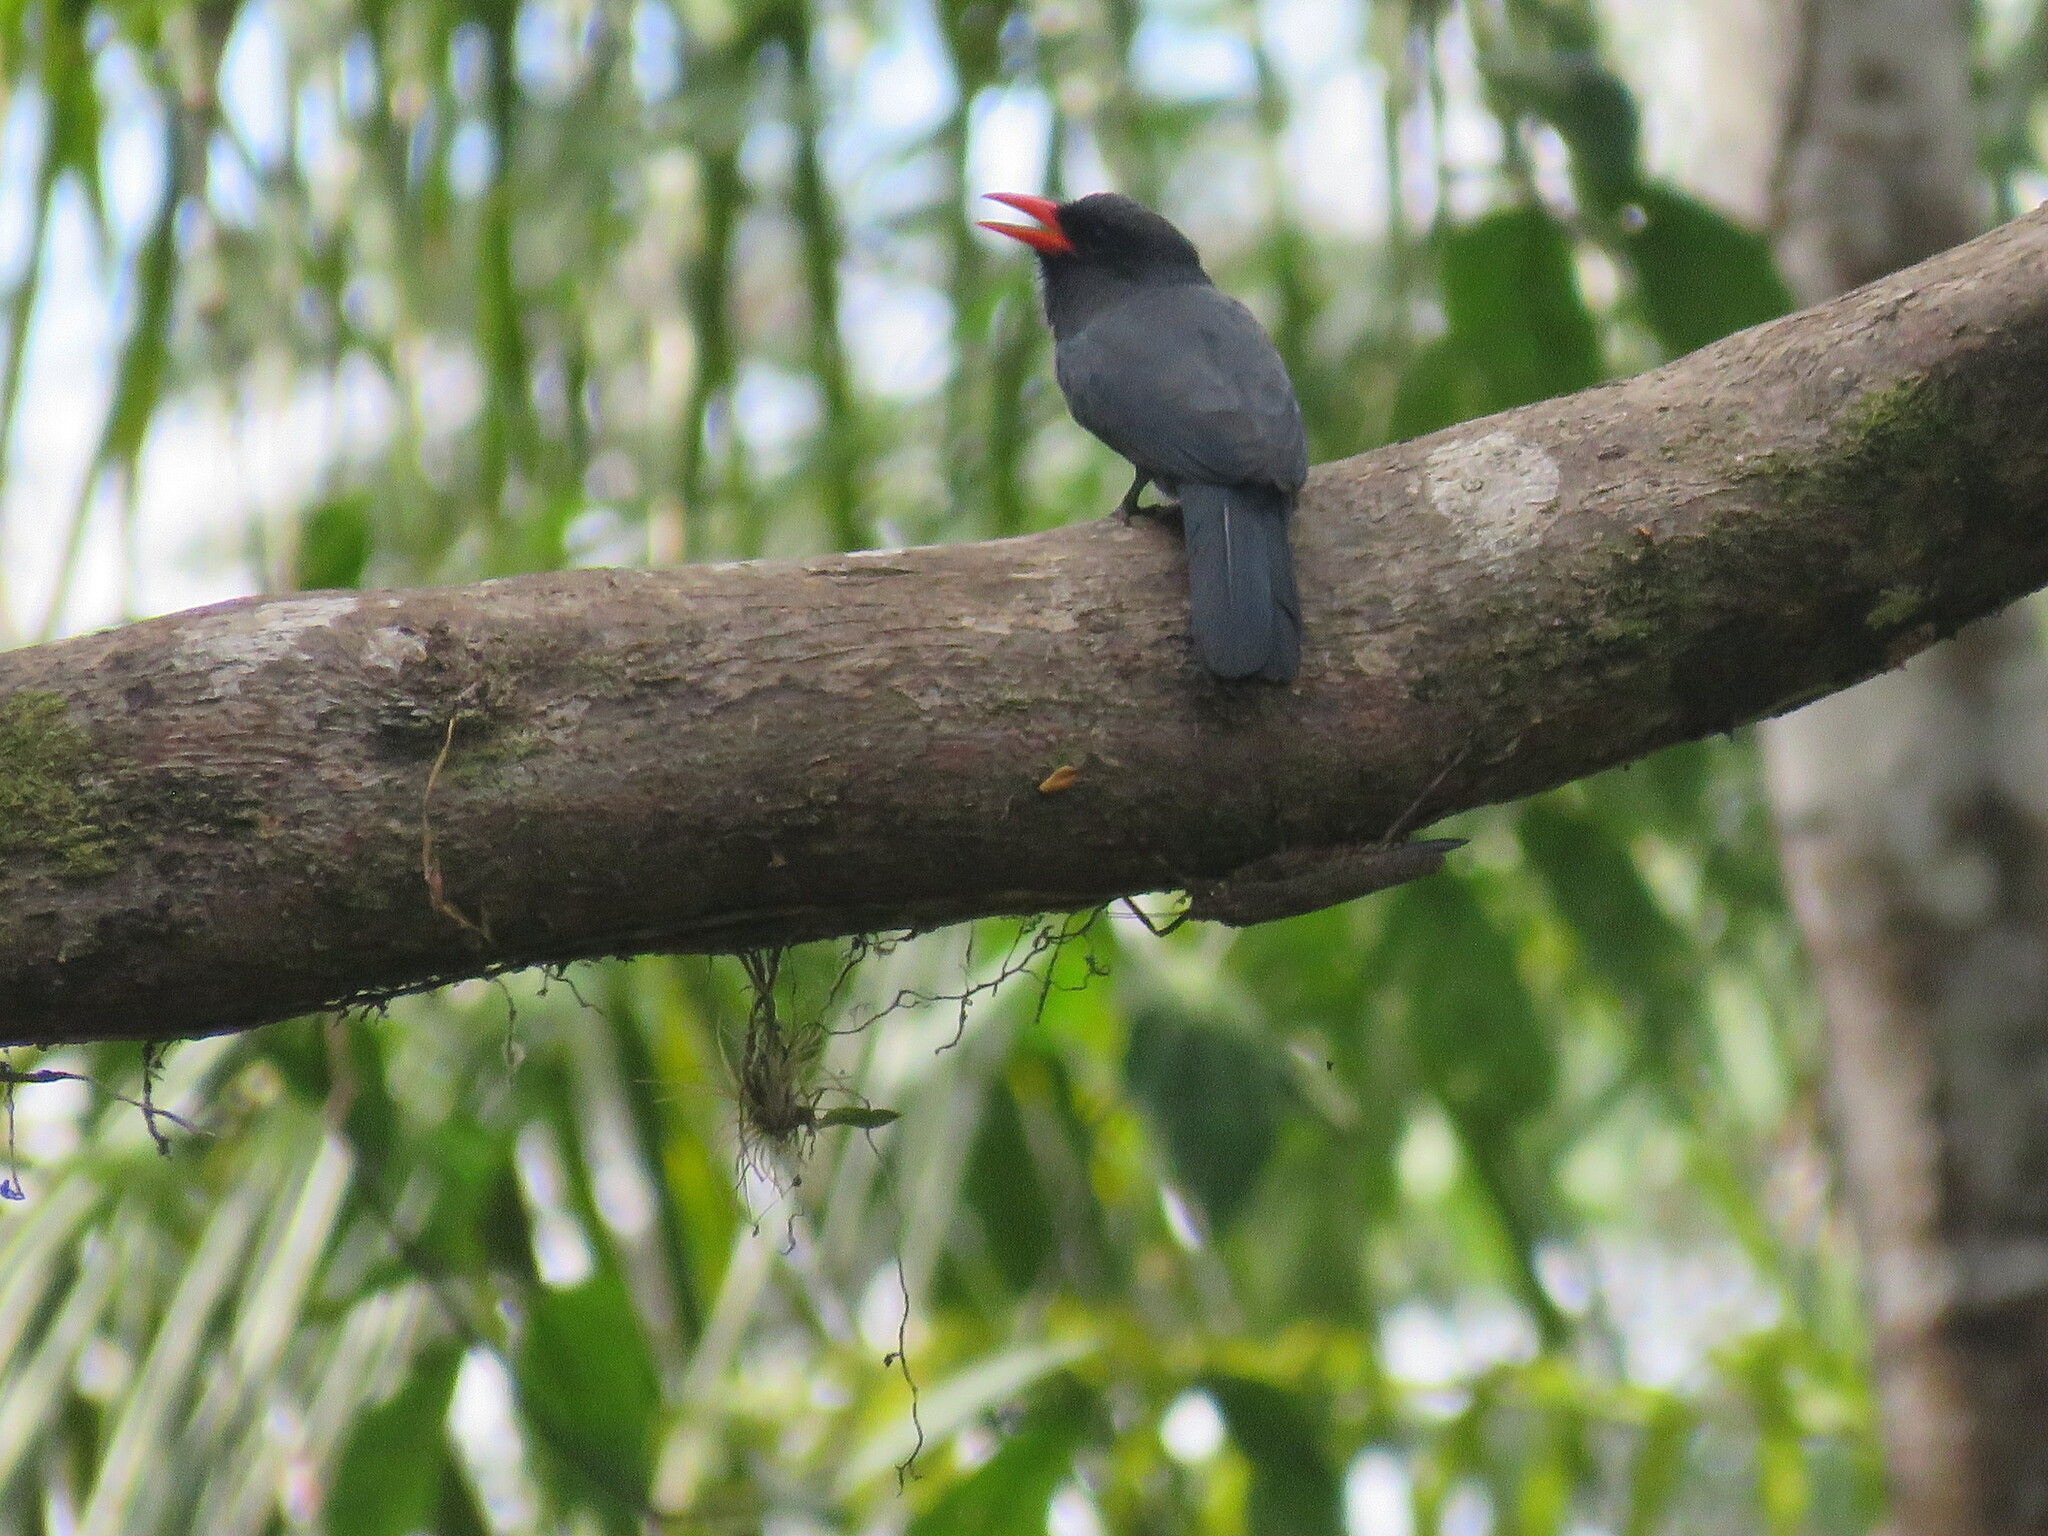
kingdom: Animalia
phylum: Chordata
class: Aves
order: Piciformes
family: Bucconidae
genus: Monasa
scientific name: Monasa nigrifrons
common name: Black-fronted nunbird
